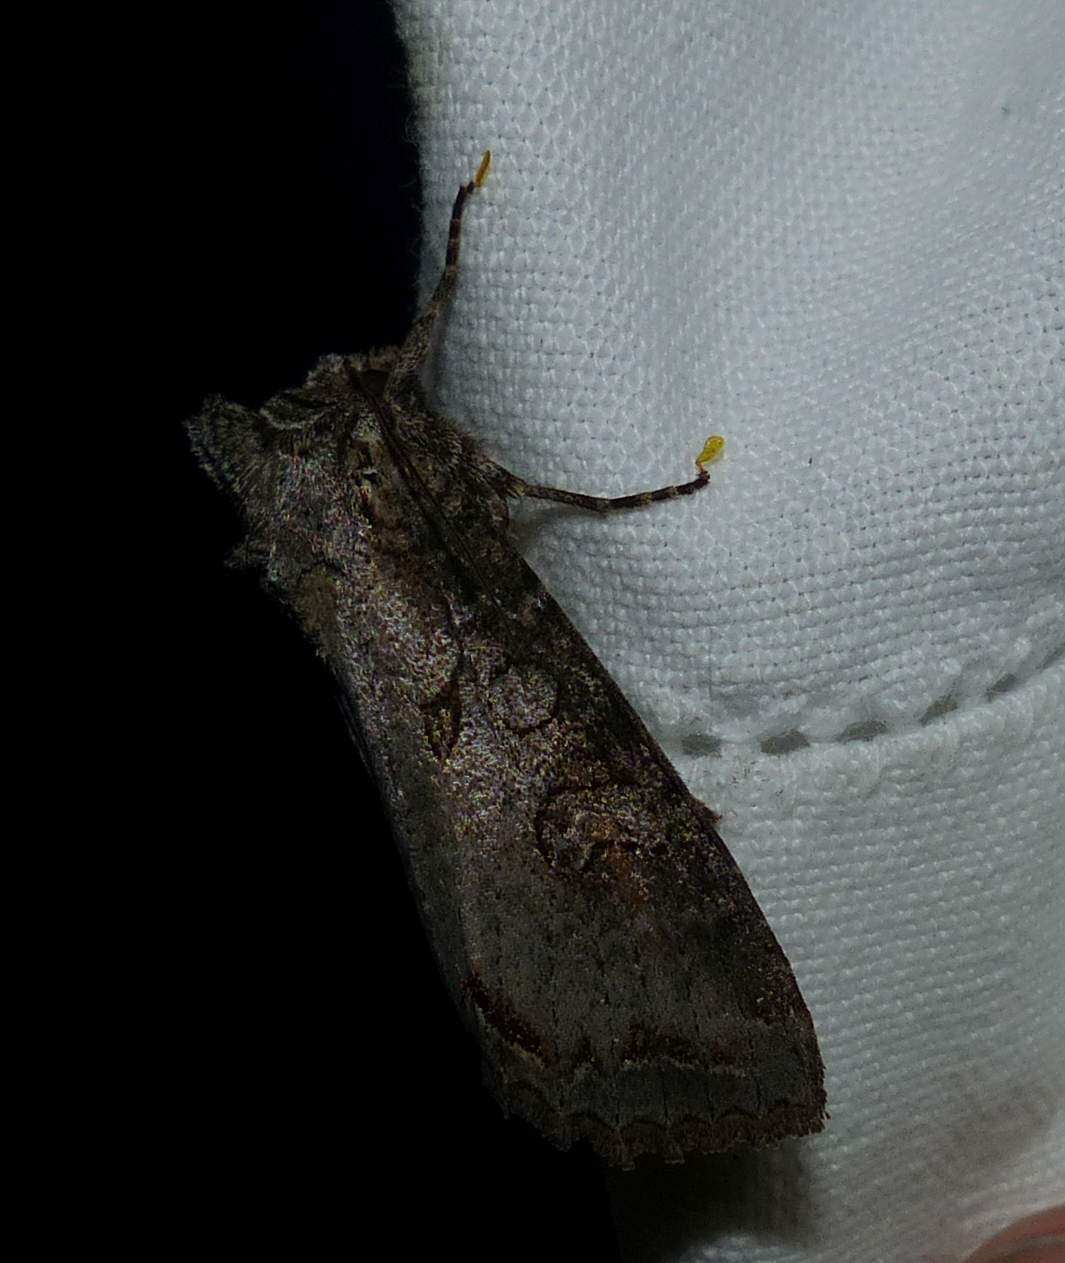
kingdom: Animalia
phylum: Arthropoda
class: Insecta
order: Lepidoptera
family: Noctuidae
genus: Polia
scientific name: Polia purpurissata
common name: Purple arches moth
